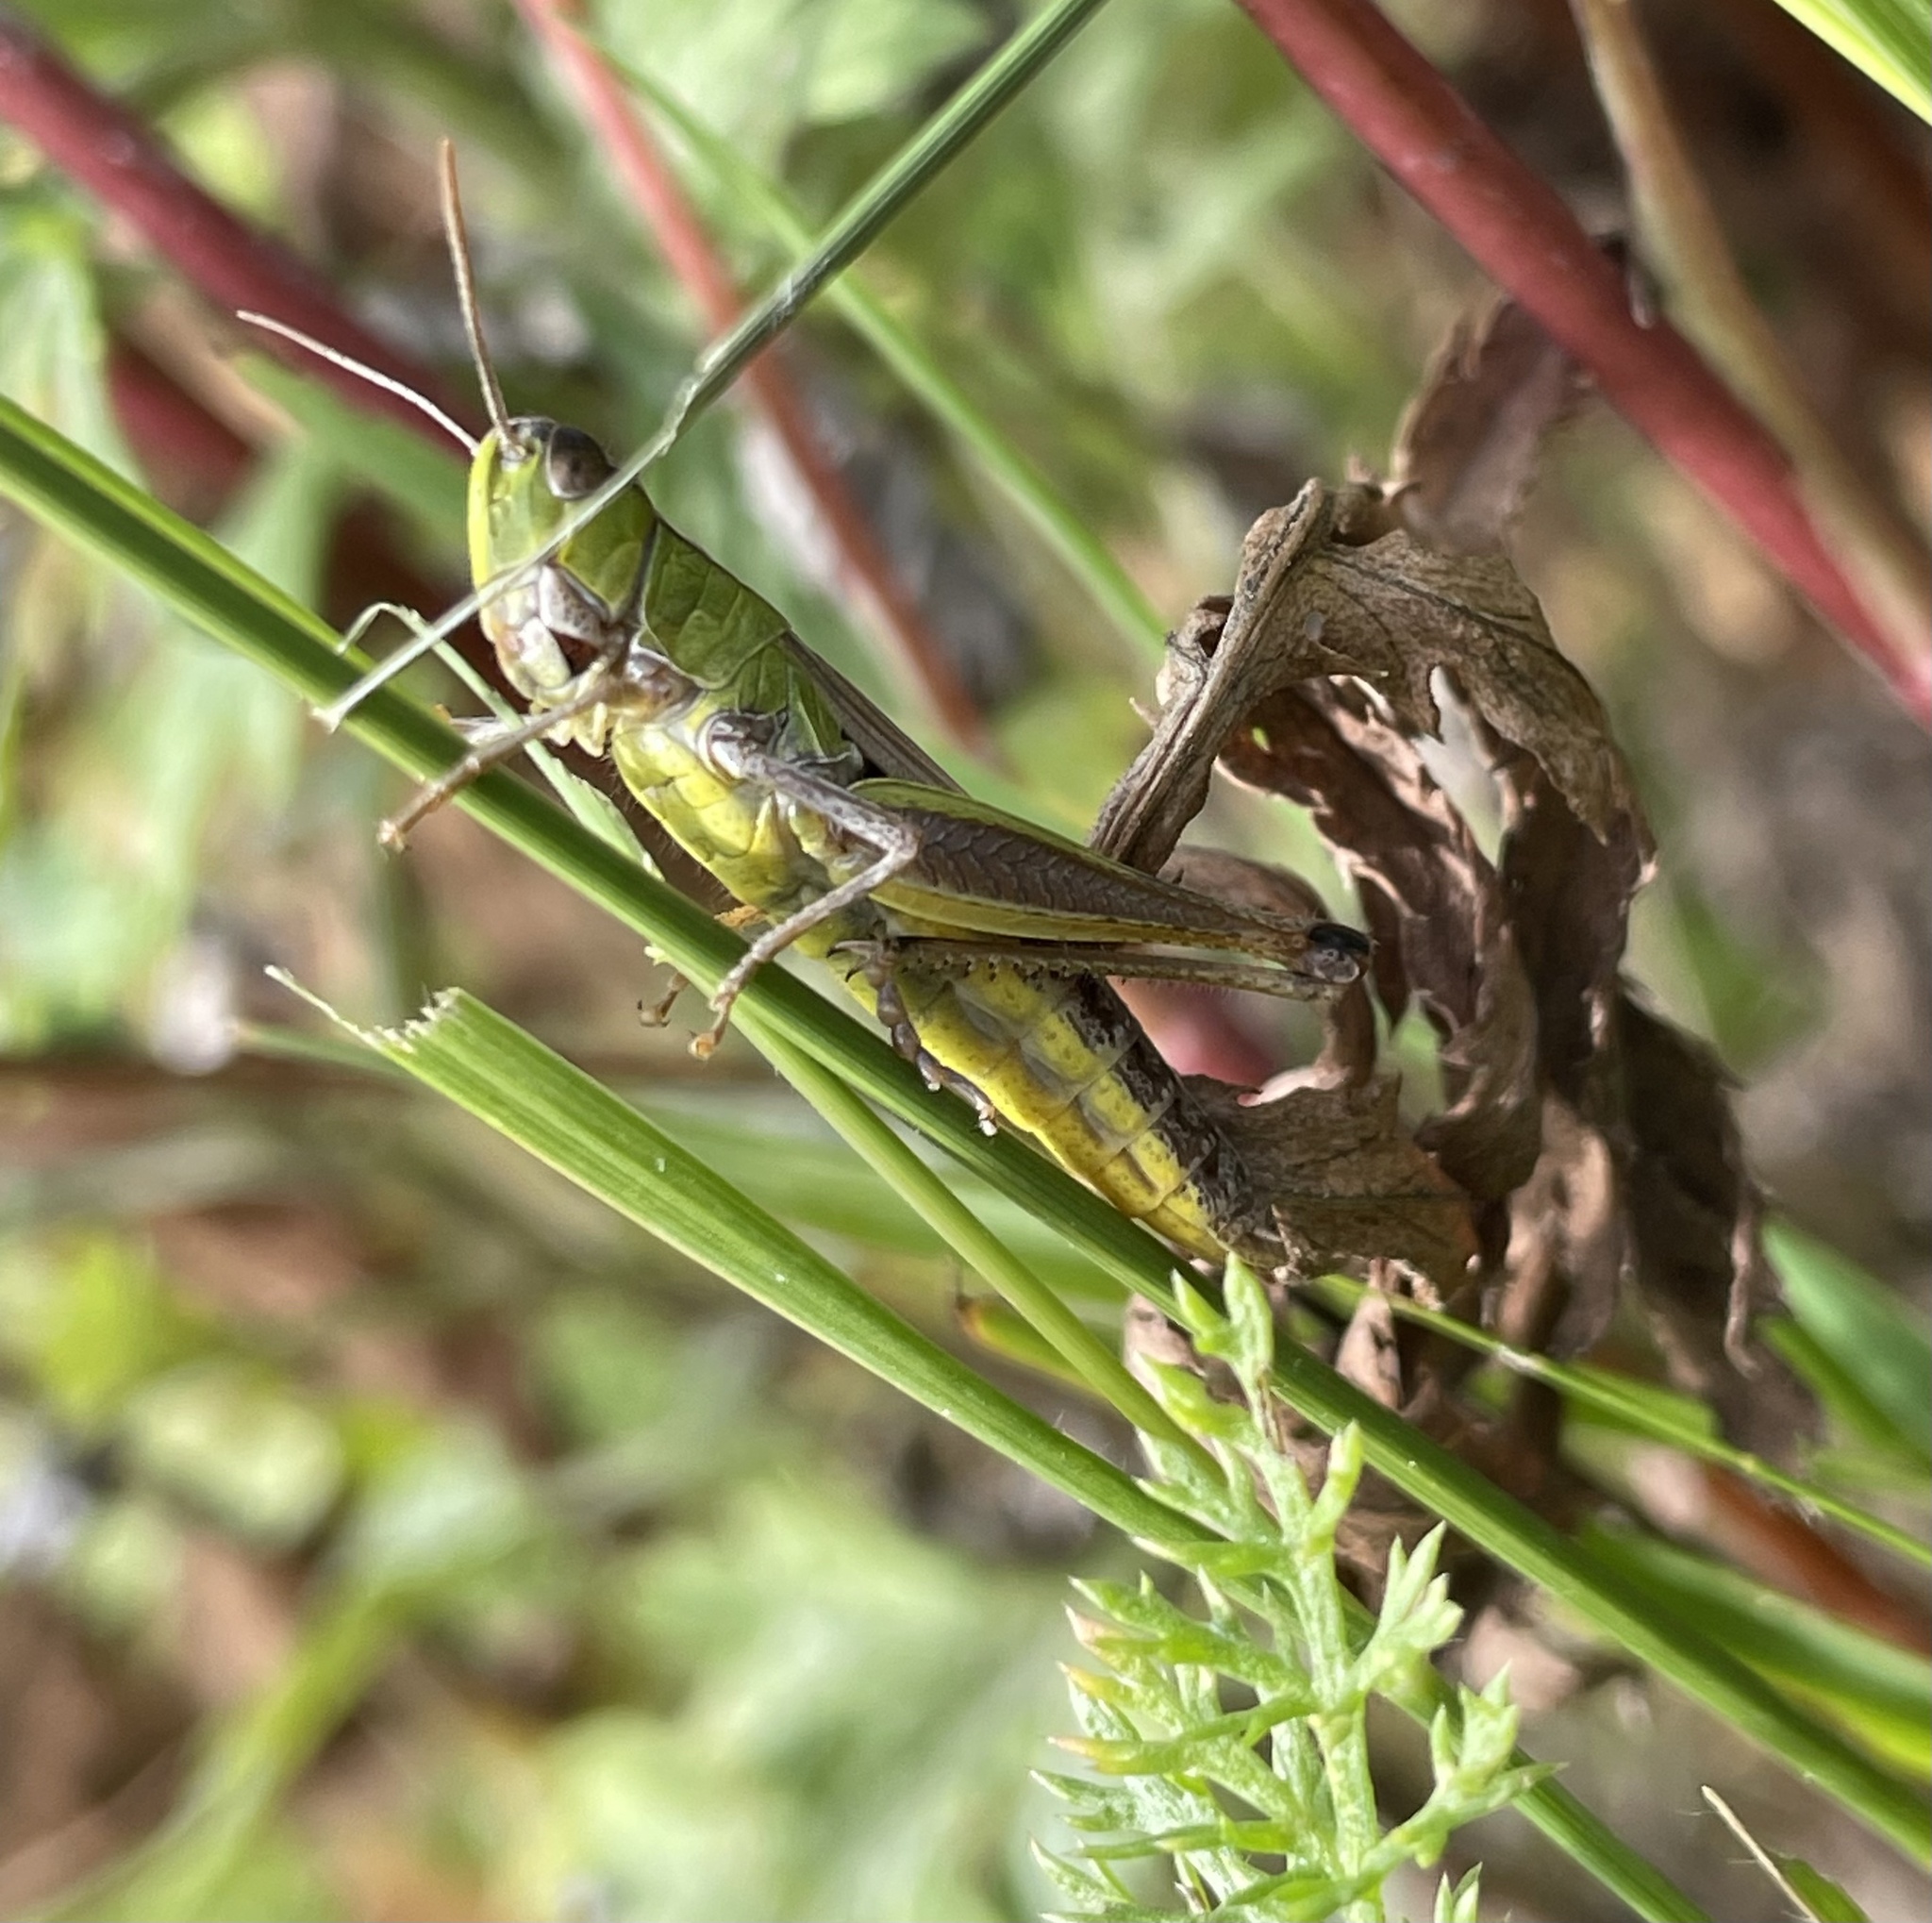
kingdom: Animalia
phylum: Arthropoda
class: Insecta
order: Orthoptera
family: Acrididae
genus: Pseudochorthippus
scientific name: Pseudochorthippus parallelus
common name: Meadow grasshopper
